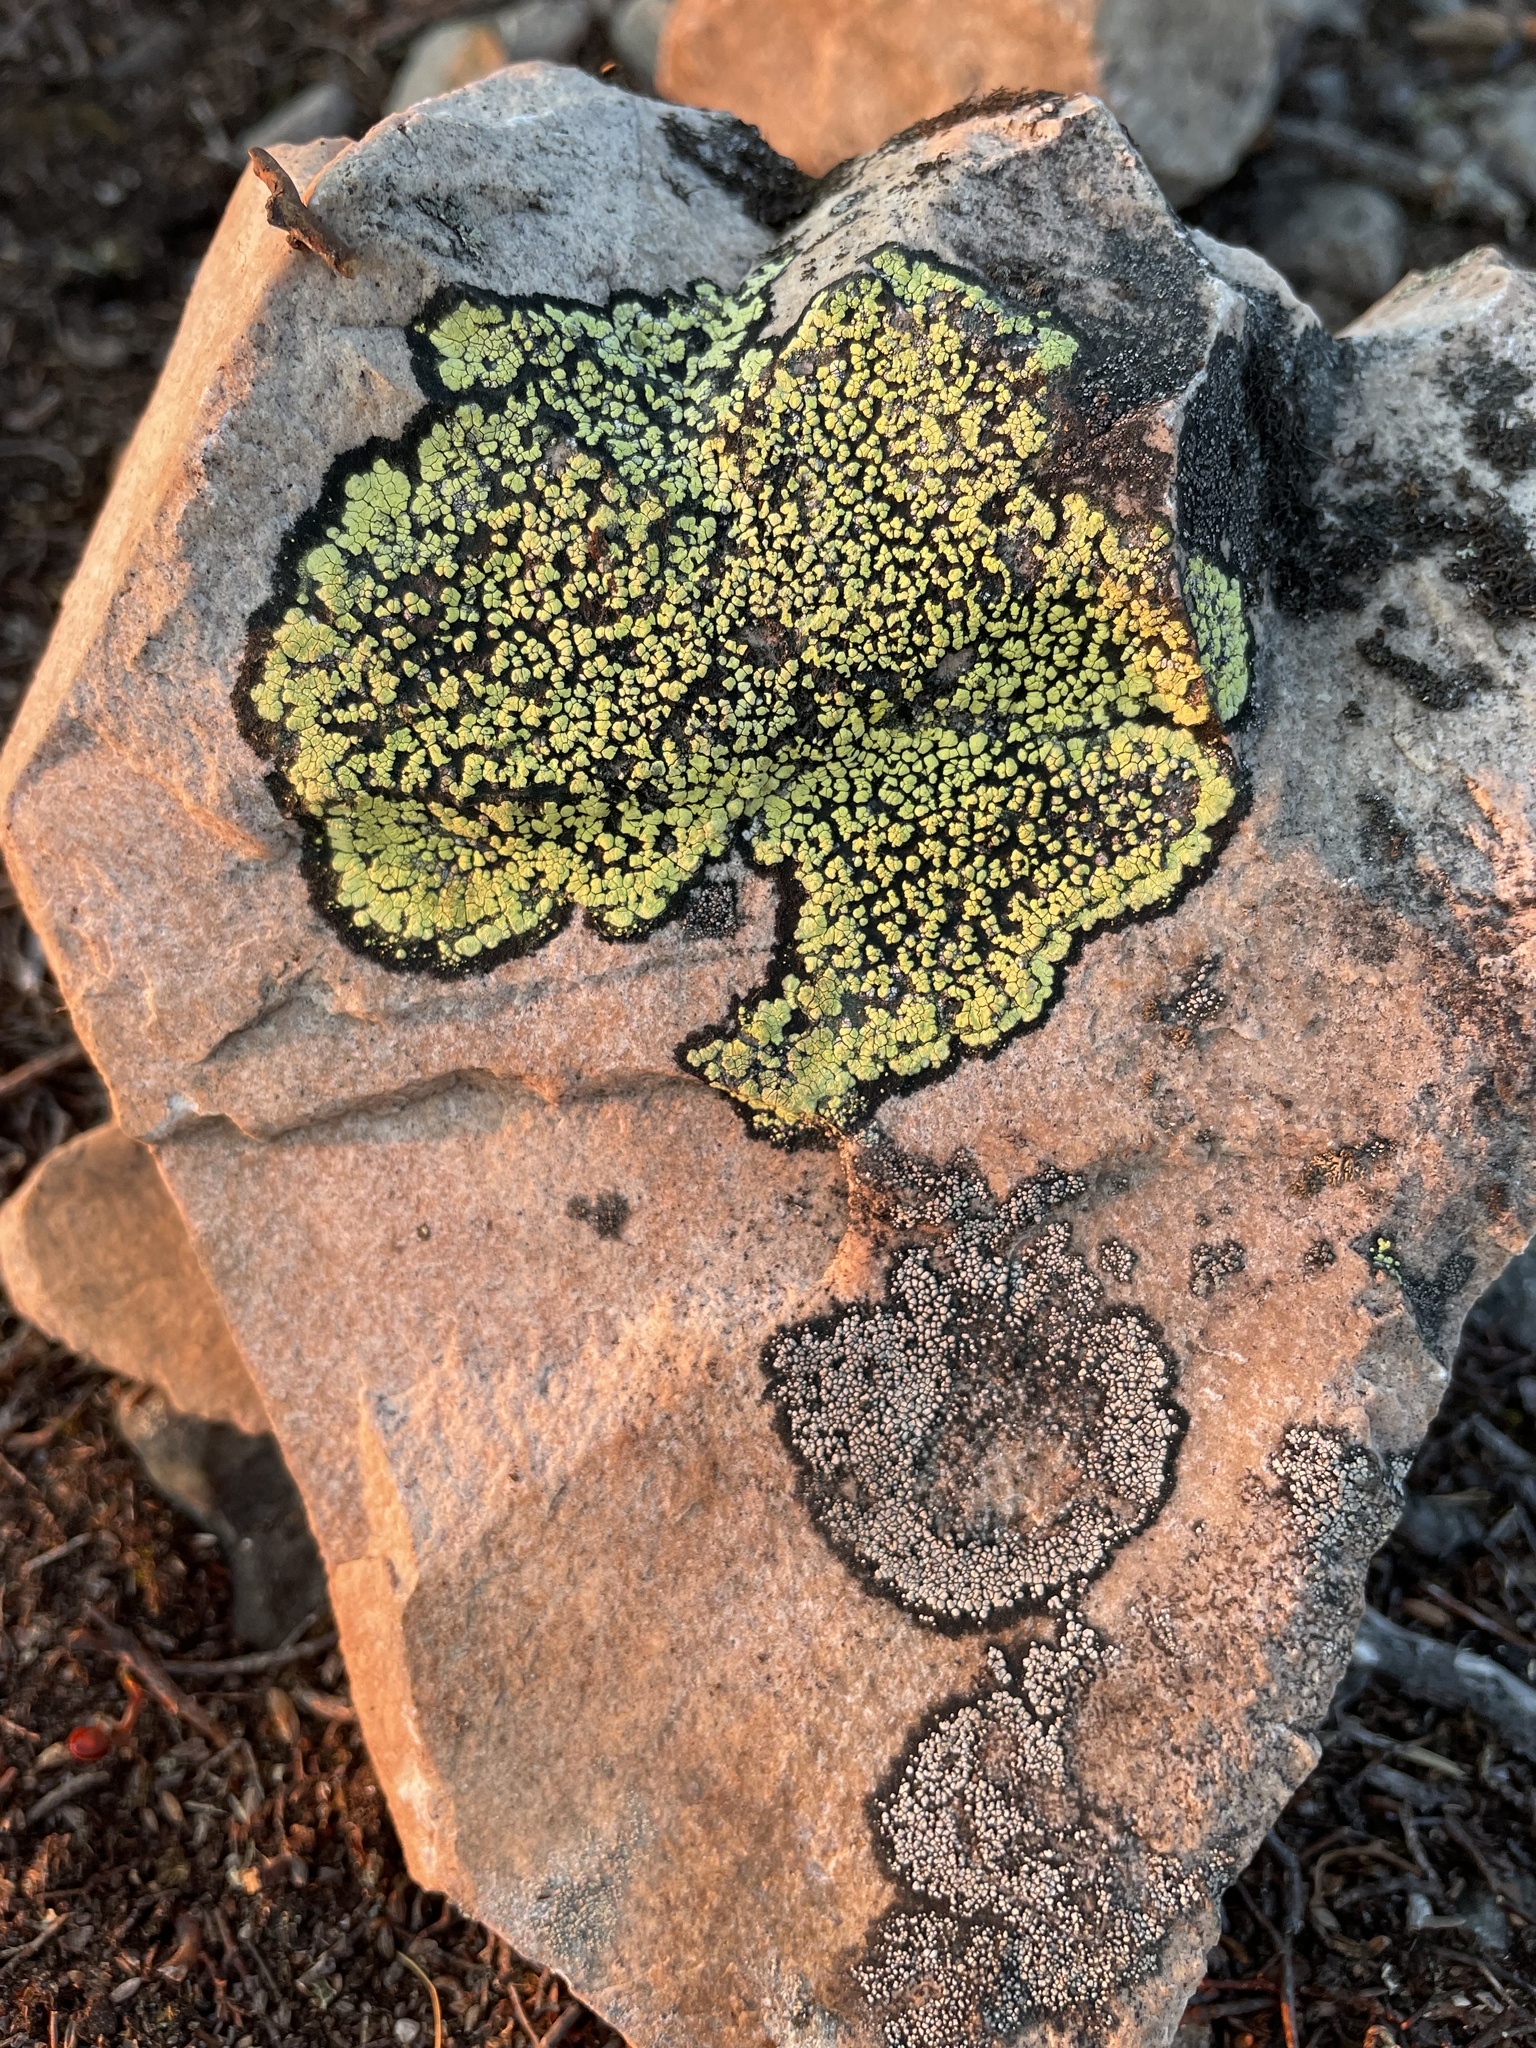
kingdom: Fungi
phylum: Ascomycota
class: Lecanoromycetes
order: Rhizocarpales
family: Rhizocarpaceae
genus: Rhizocarpon
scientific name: Rhizocarpon geographicum
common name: Yellow map lichen
